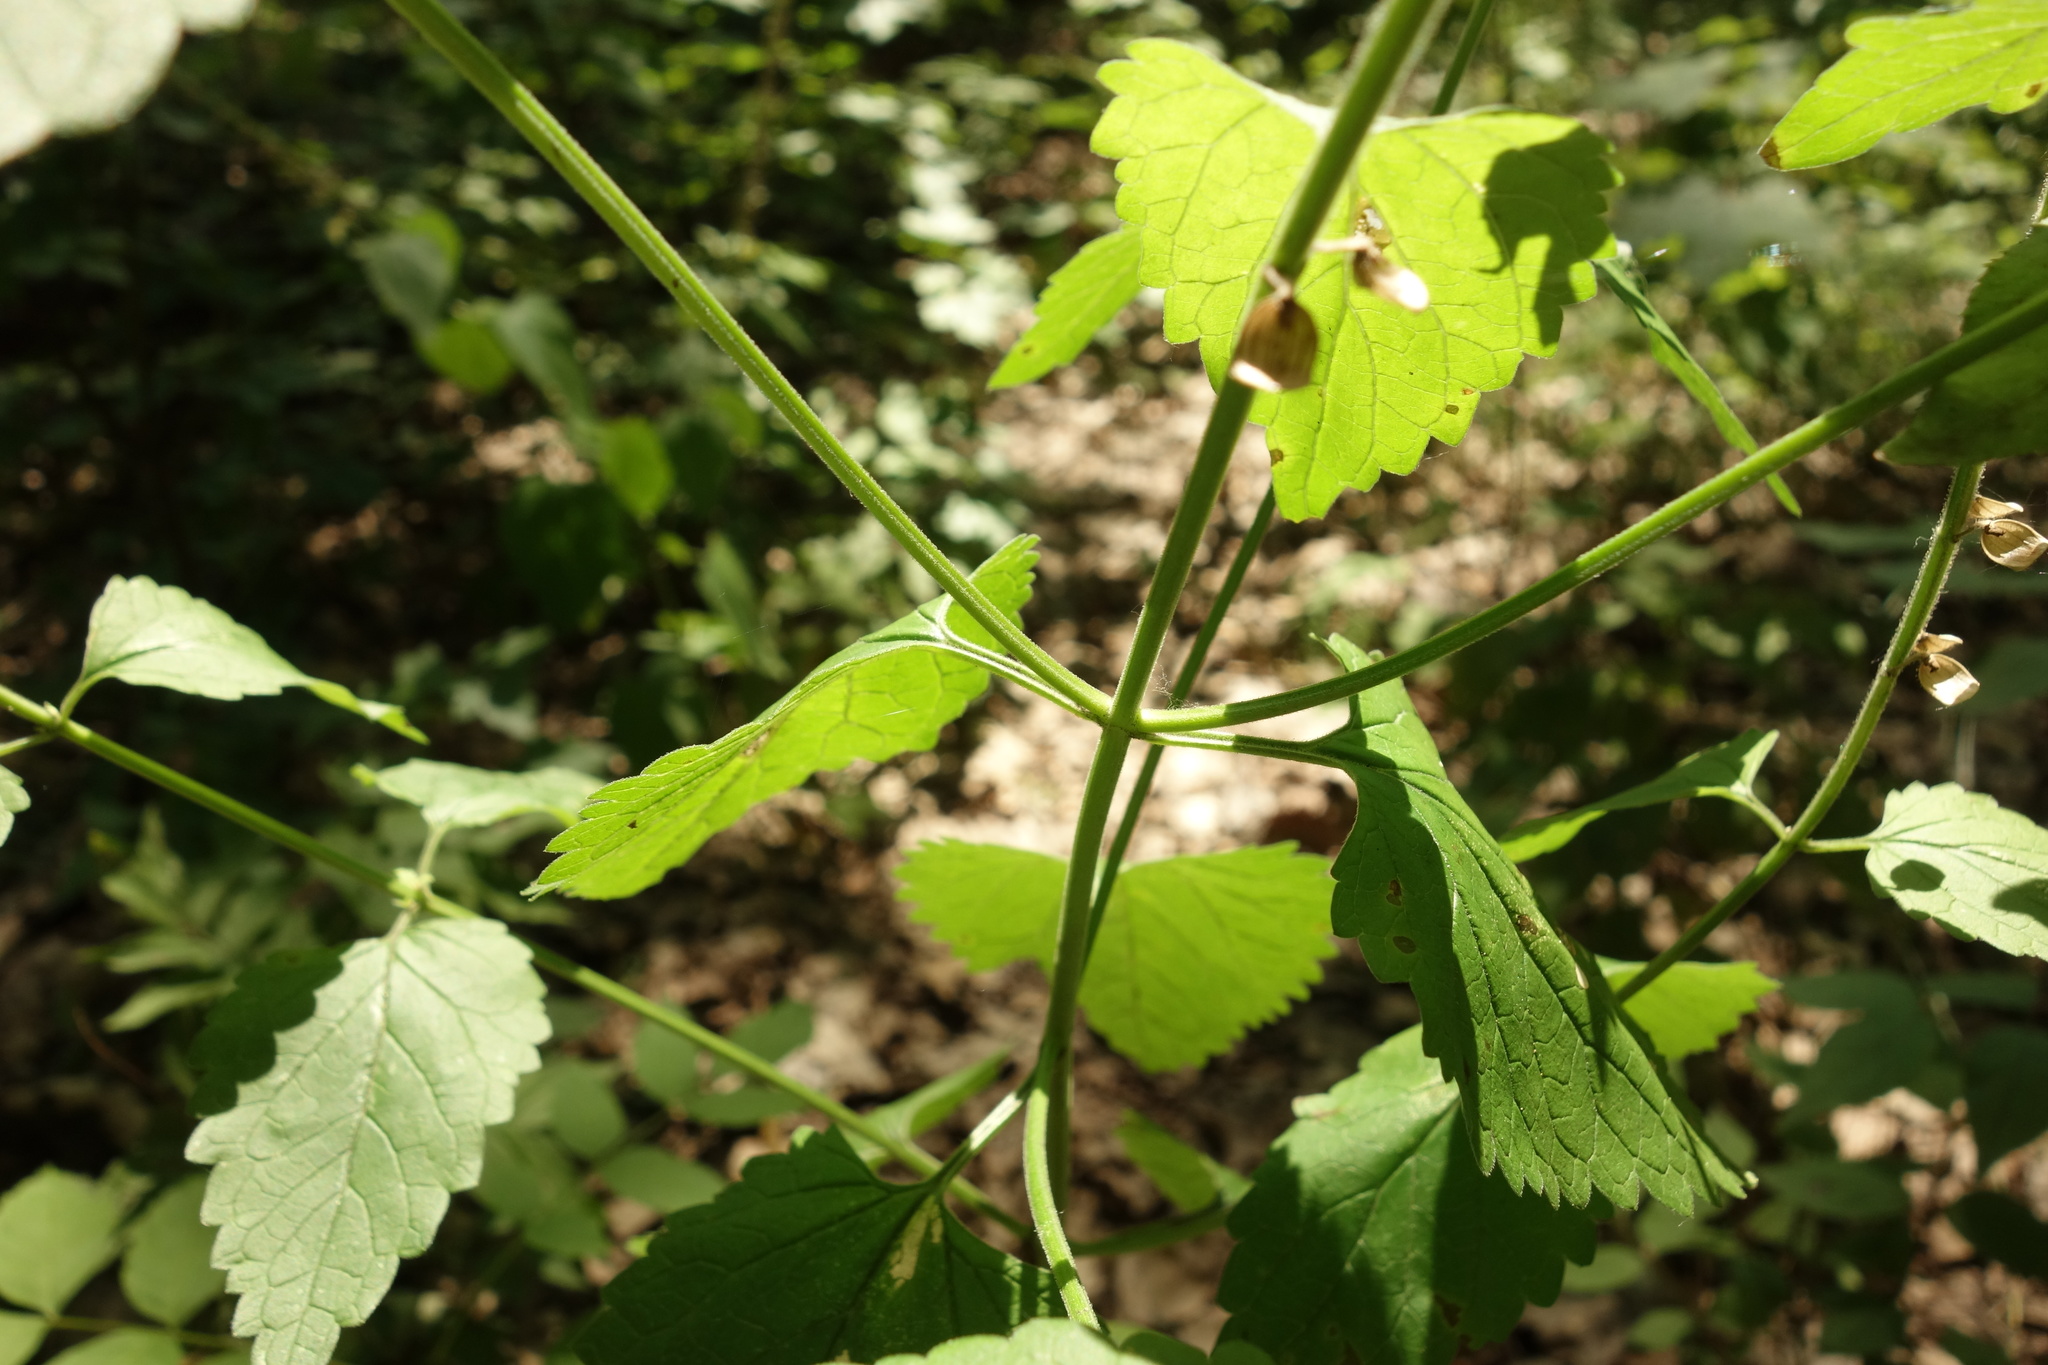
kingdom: Plantae
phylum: Tracheophyta
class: Magnoliopsida
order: Lamiales
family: Lamiaceae
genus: Scutellaria
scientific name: Scutellaria altissima
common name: Somerset skullcap
